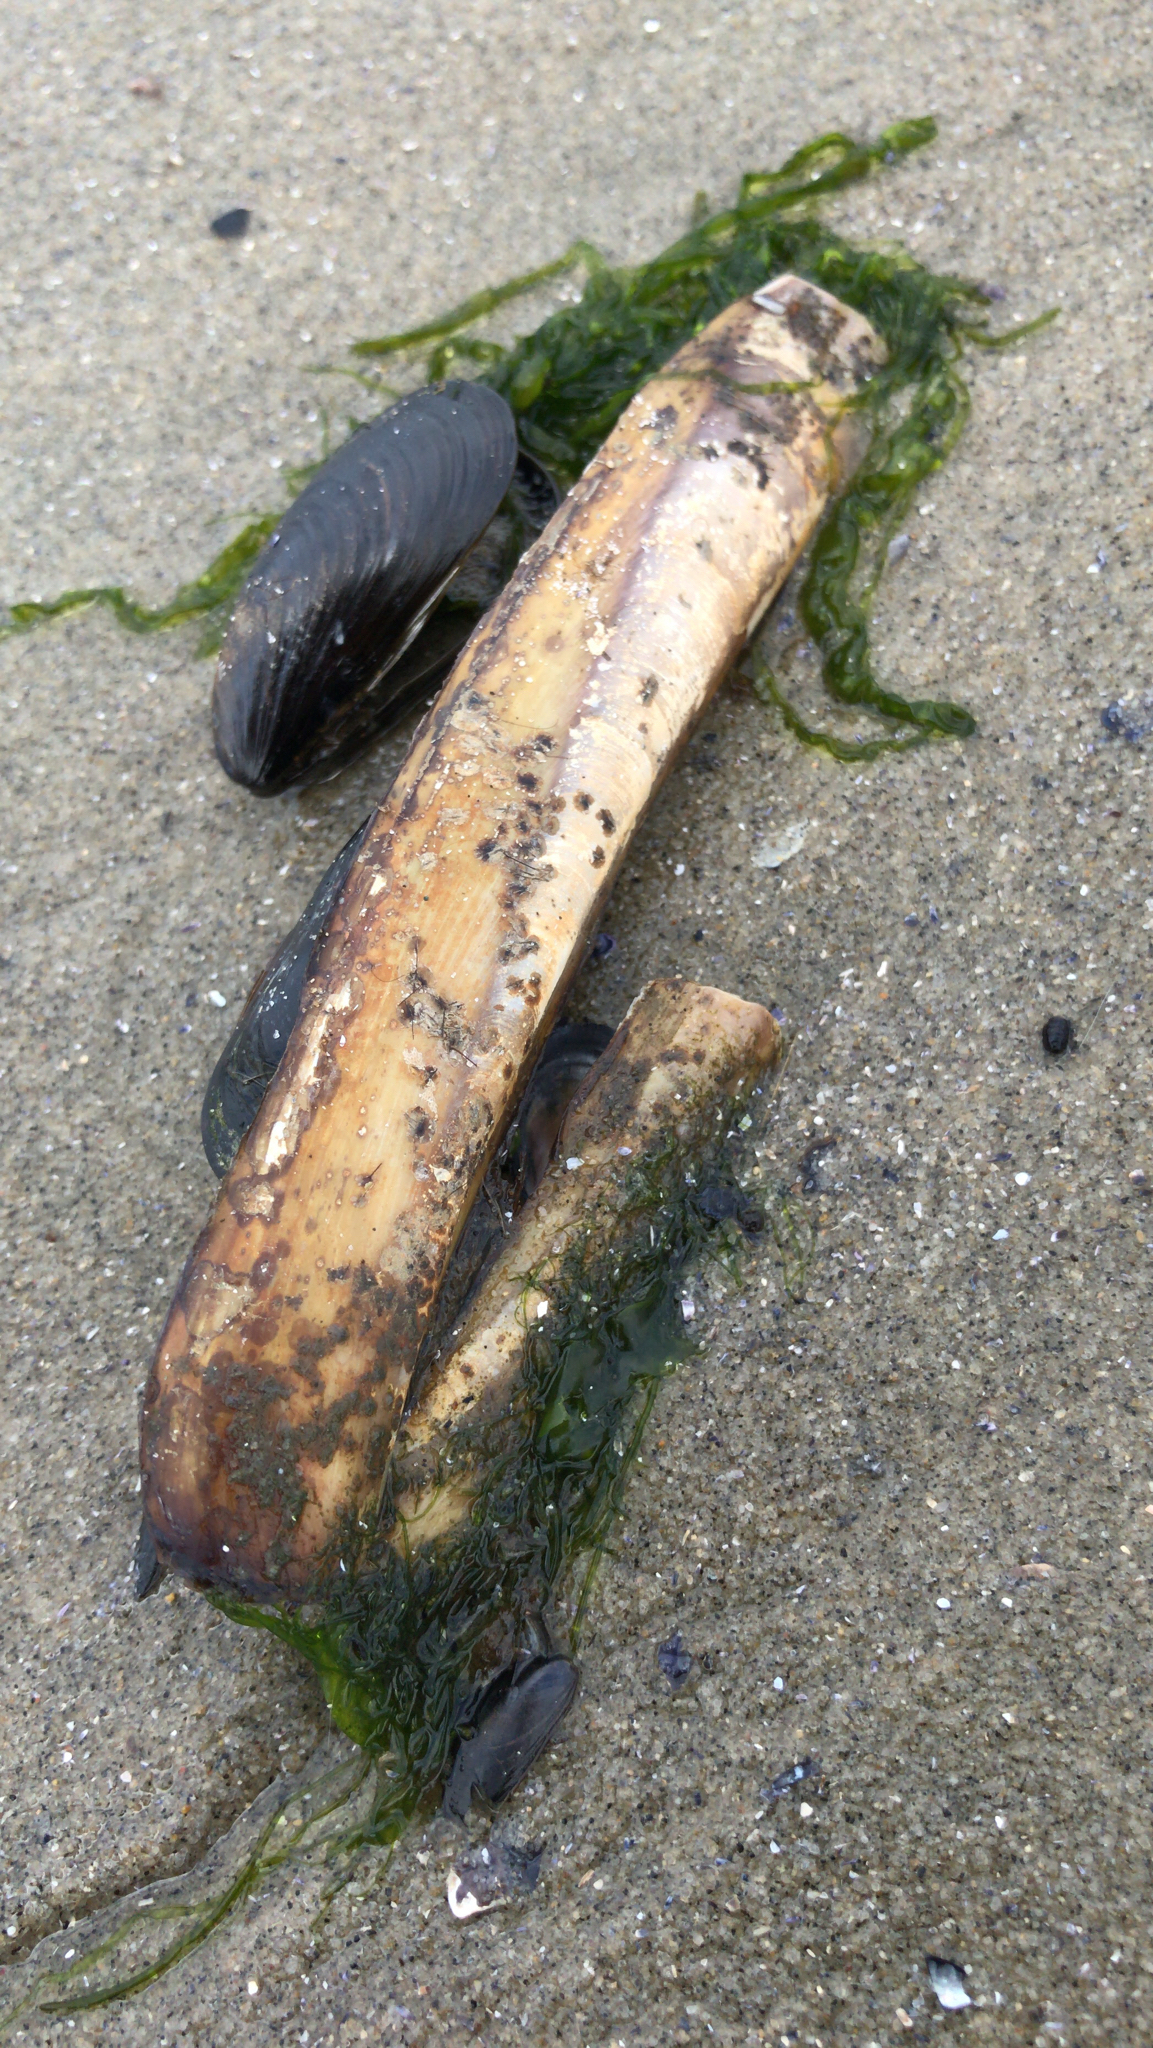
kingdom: Animalia
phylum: Mollusca
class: Bivalvia
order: Adapedonta
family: Pharidae
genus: Ensis
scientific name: Ensis leei
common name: American jack knife clam
